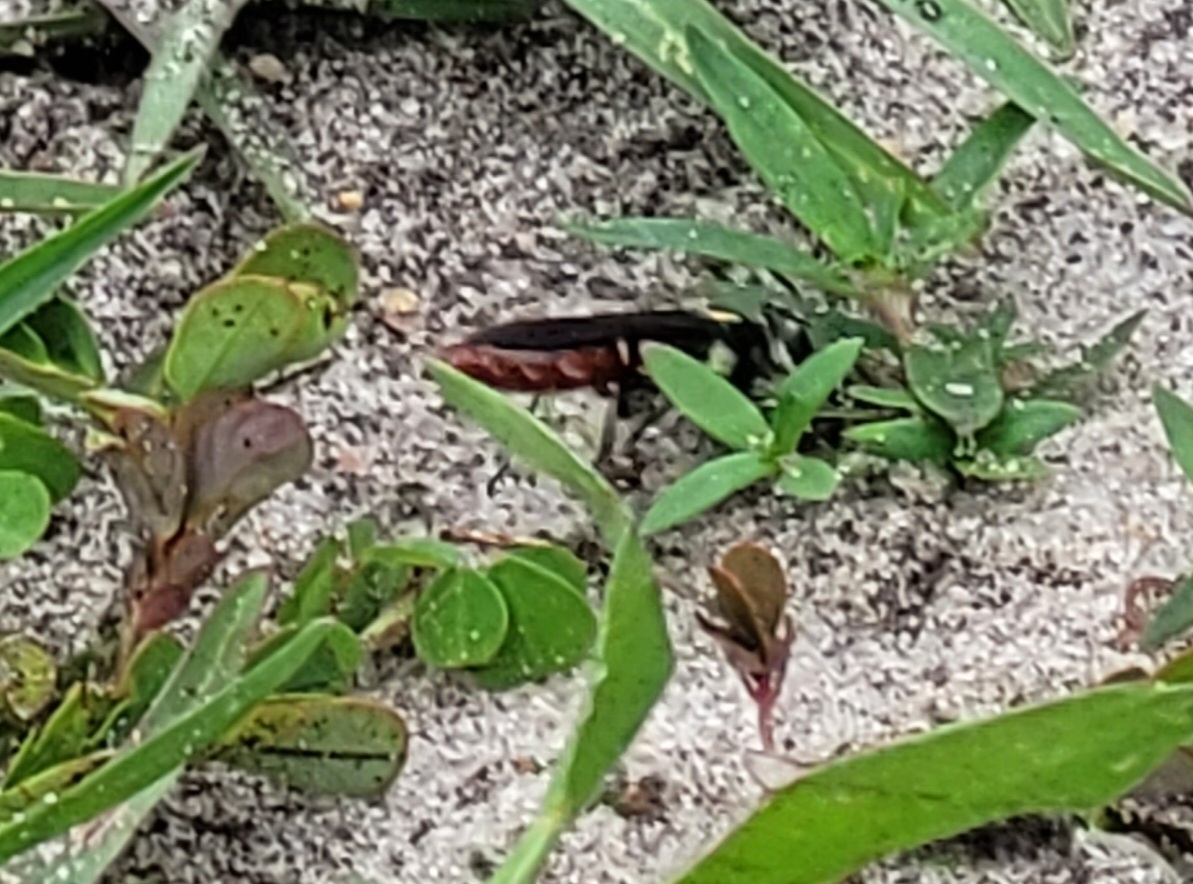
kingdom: Animalia
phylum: Arthropoda
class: Insecta
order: Hymenoptera
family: Crabronidae
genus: Larra
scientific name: Larra bicolor
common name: Wasp
